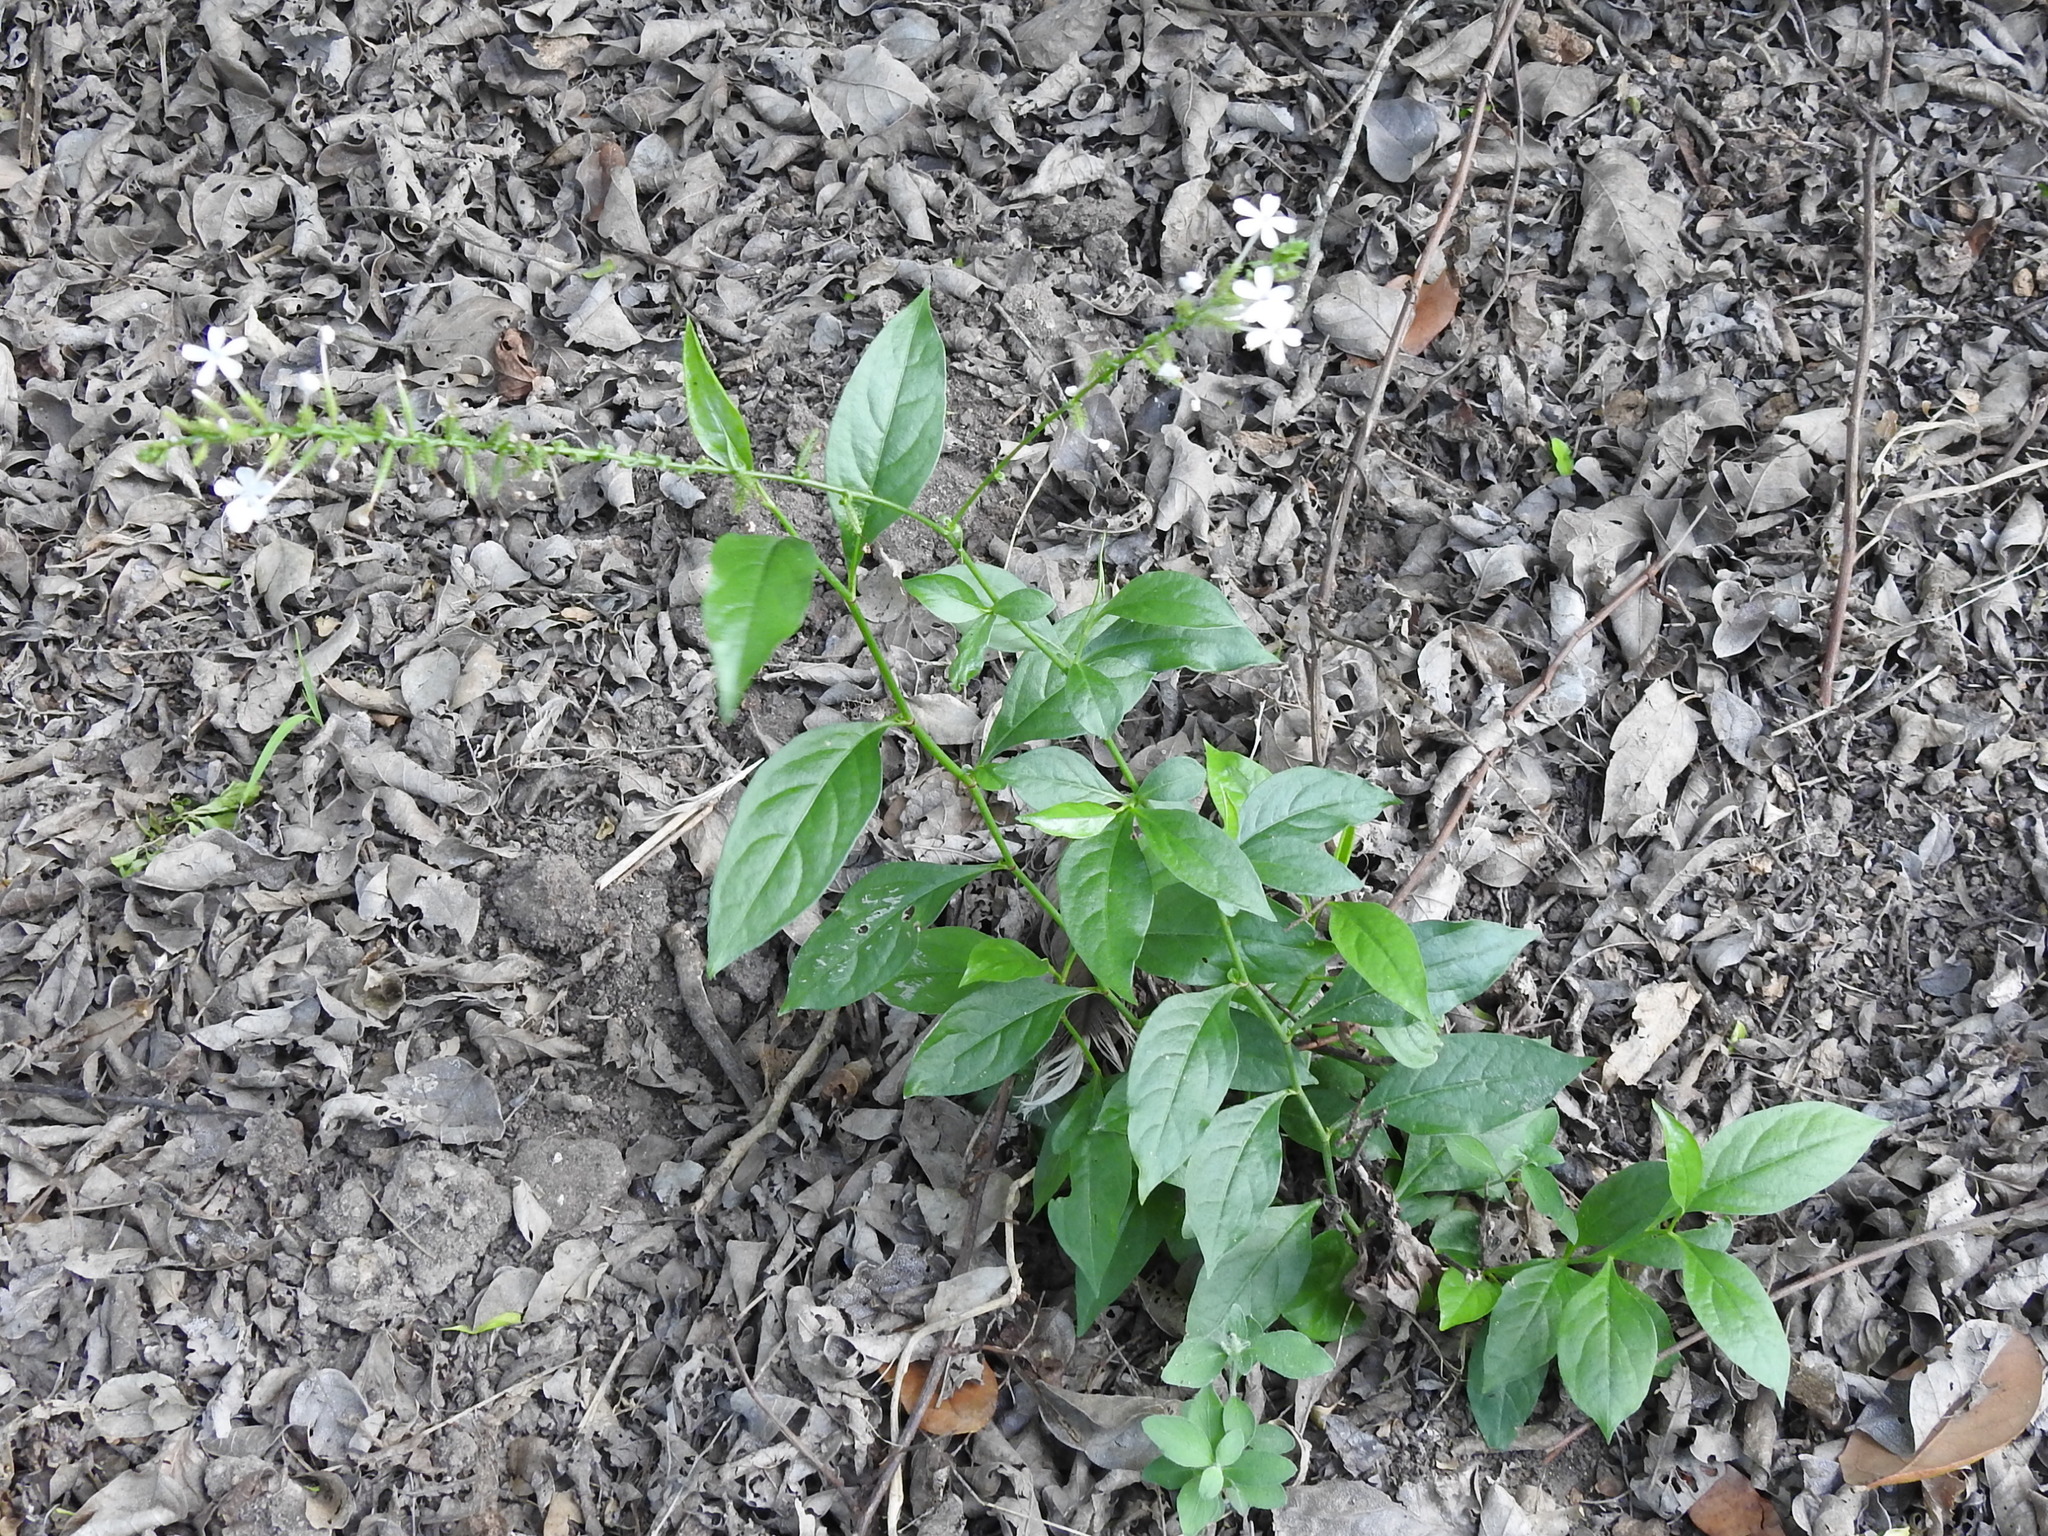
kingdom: Plantae
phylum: Tracheophyta
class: Magnoliopsida
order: Caryophyllales
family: Plumbaginaceae
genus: Plumbago
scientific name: Plumbago zeylanica
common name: Doctorbush
